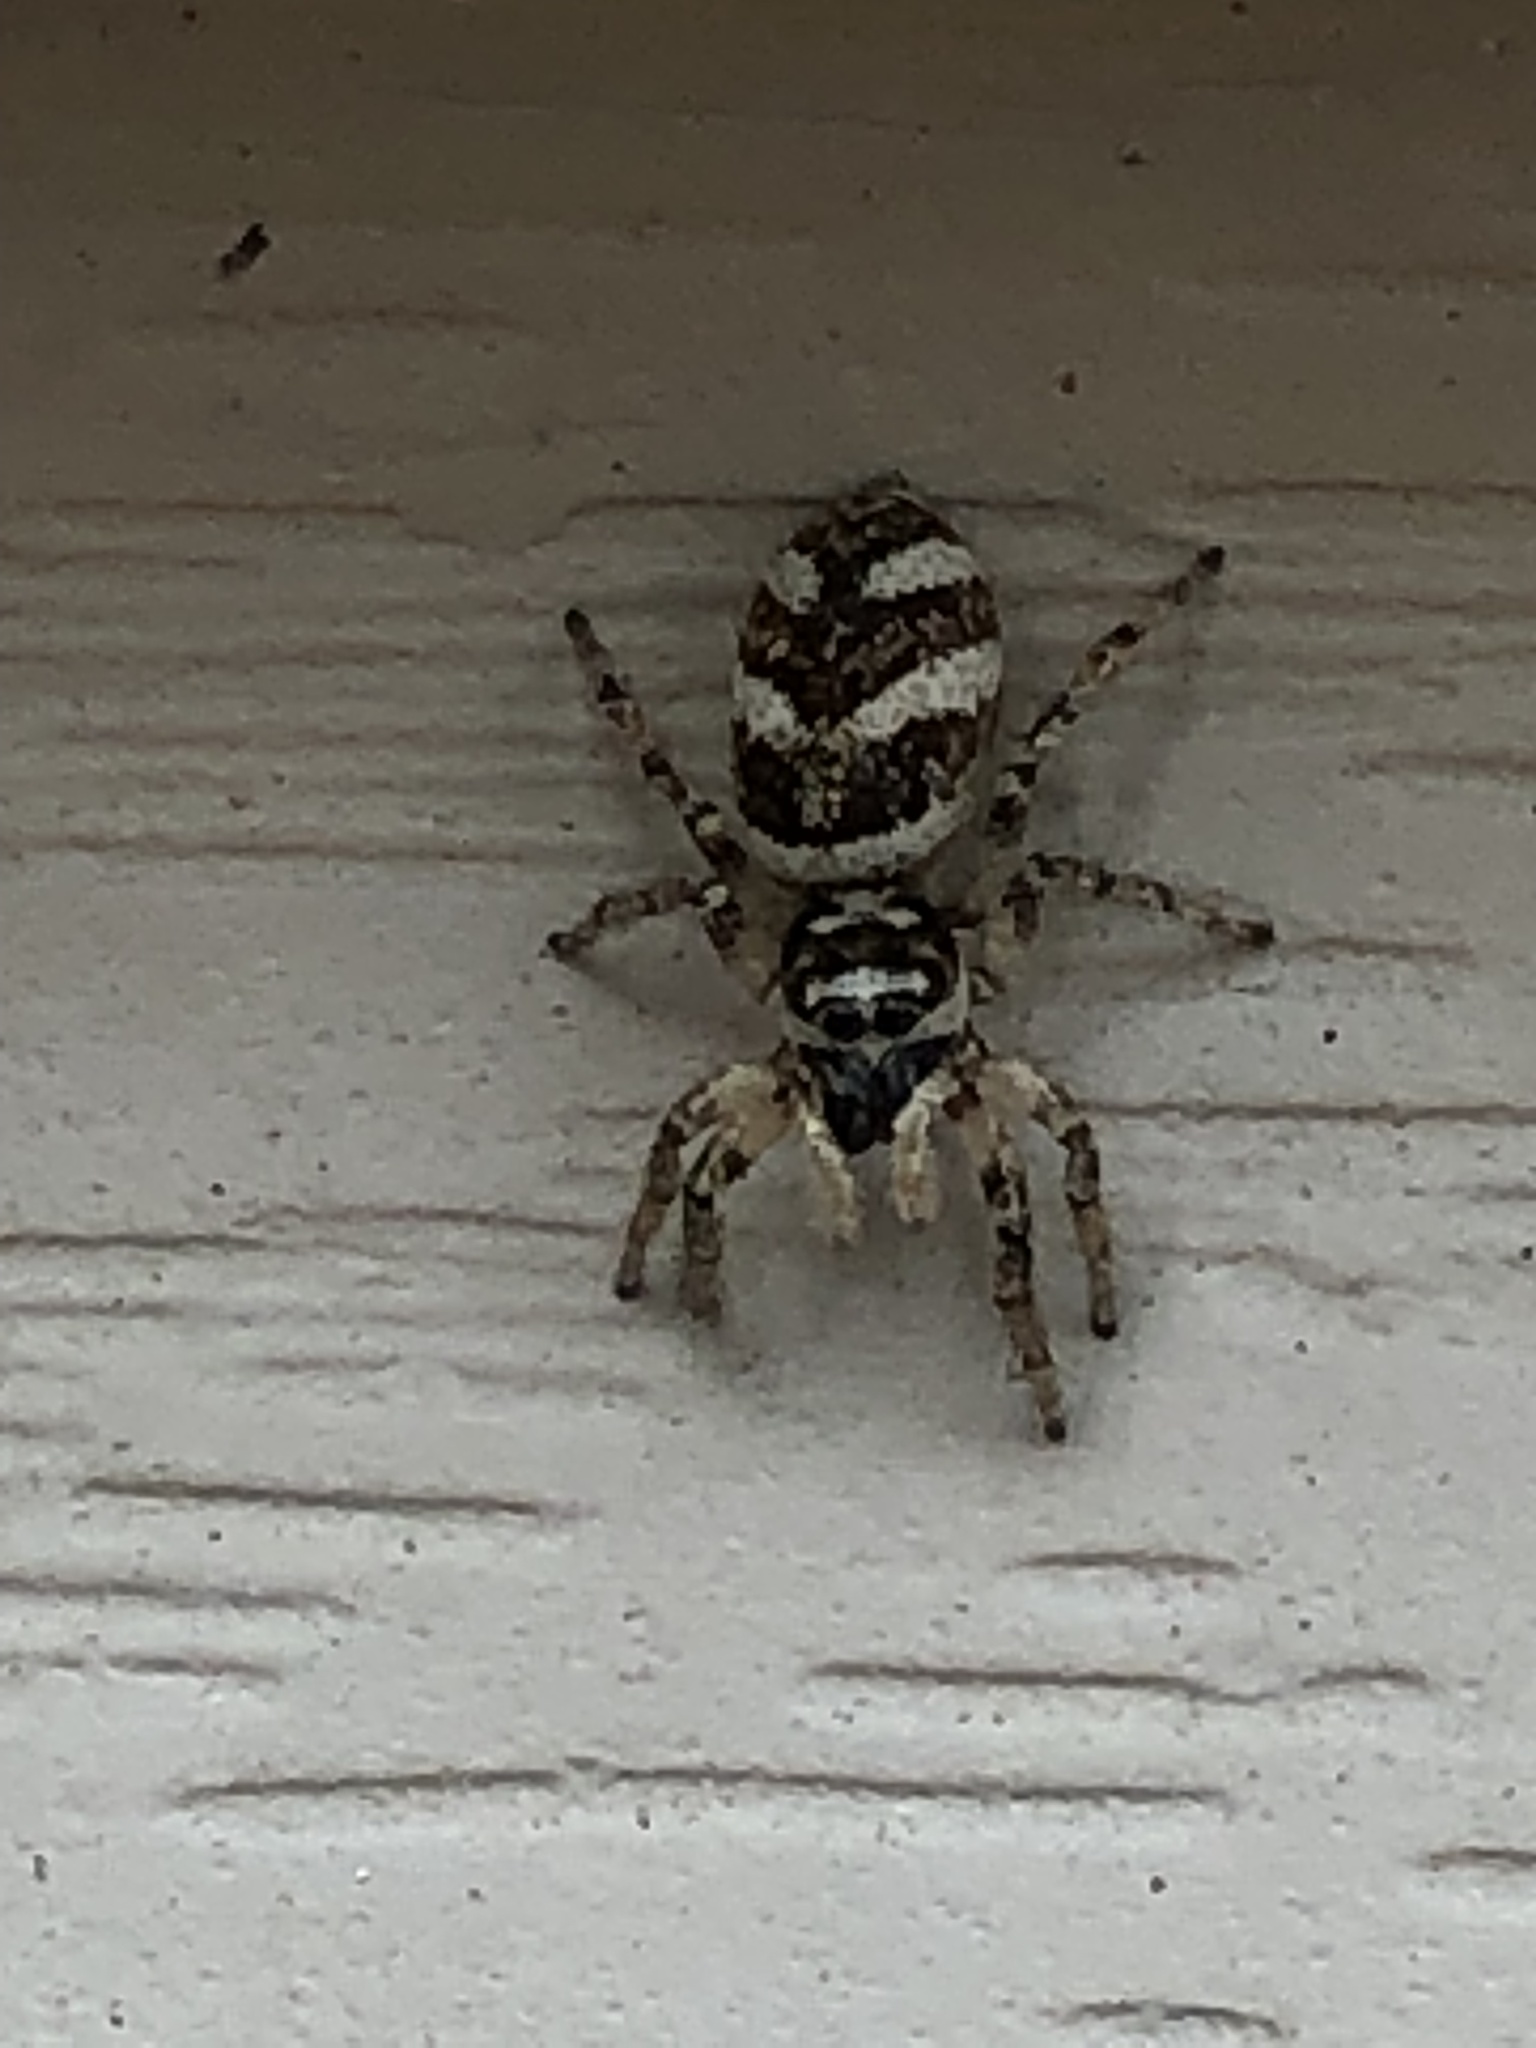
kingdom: Animalia
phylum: Arthropoda
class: Arachnida
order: Araneae
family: Salticidae
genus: Salticus
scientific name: Salticus scenicus
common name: Zebra jumper
